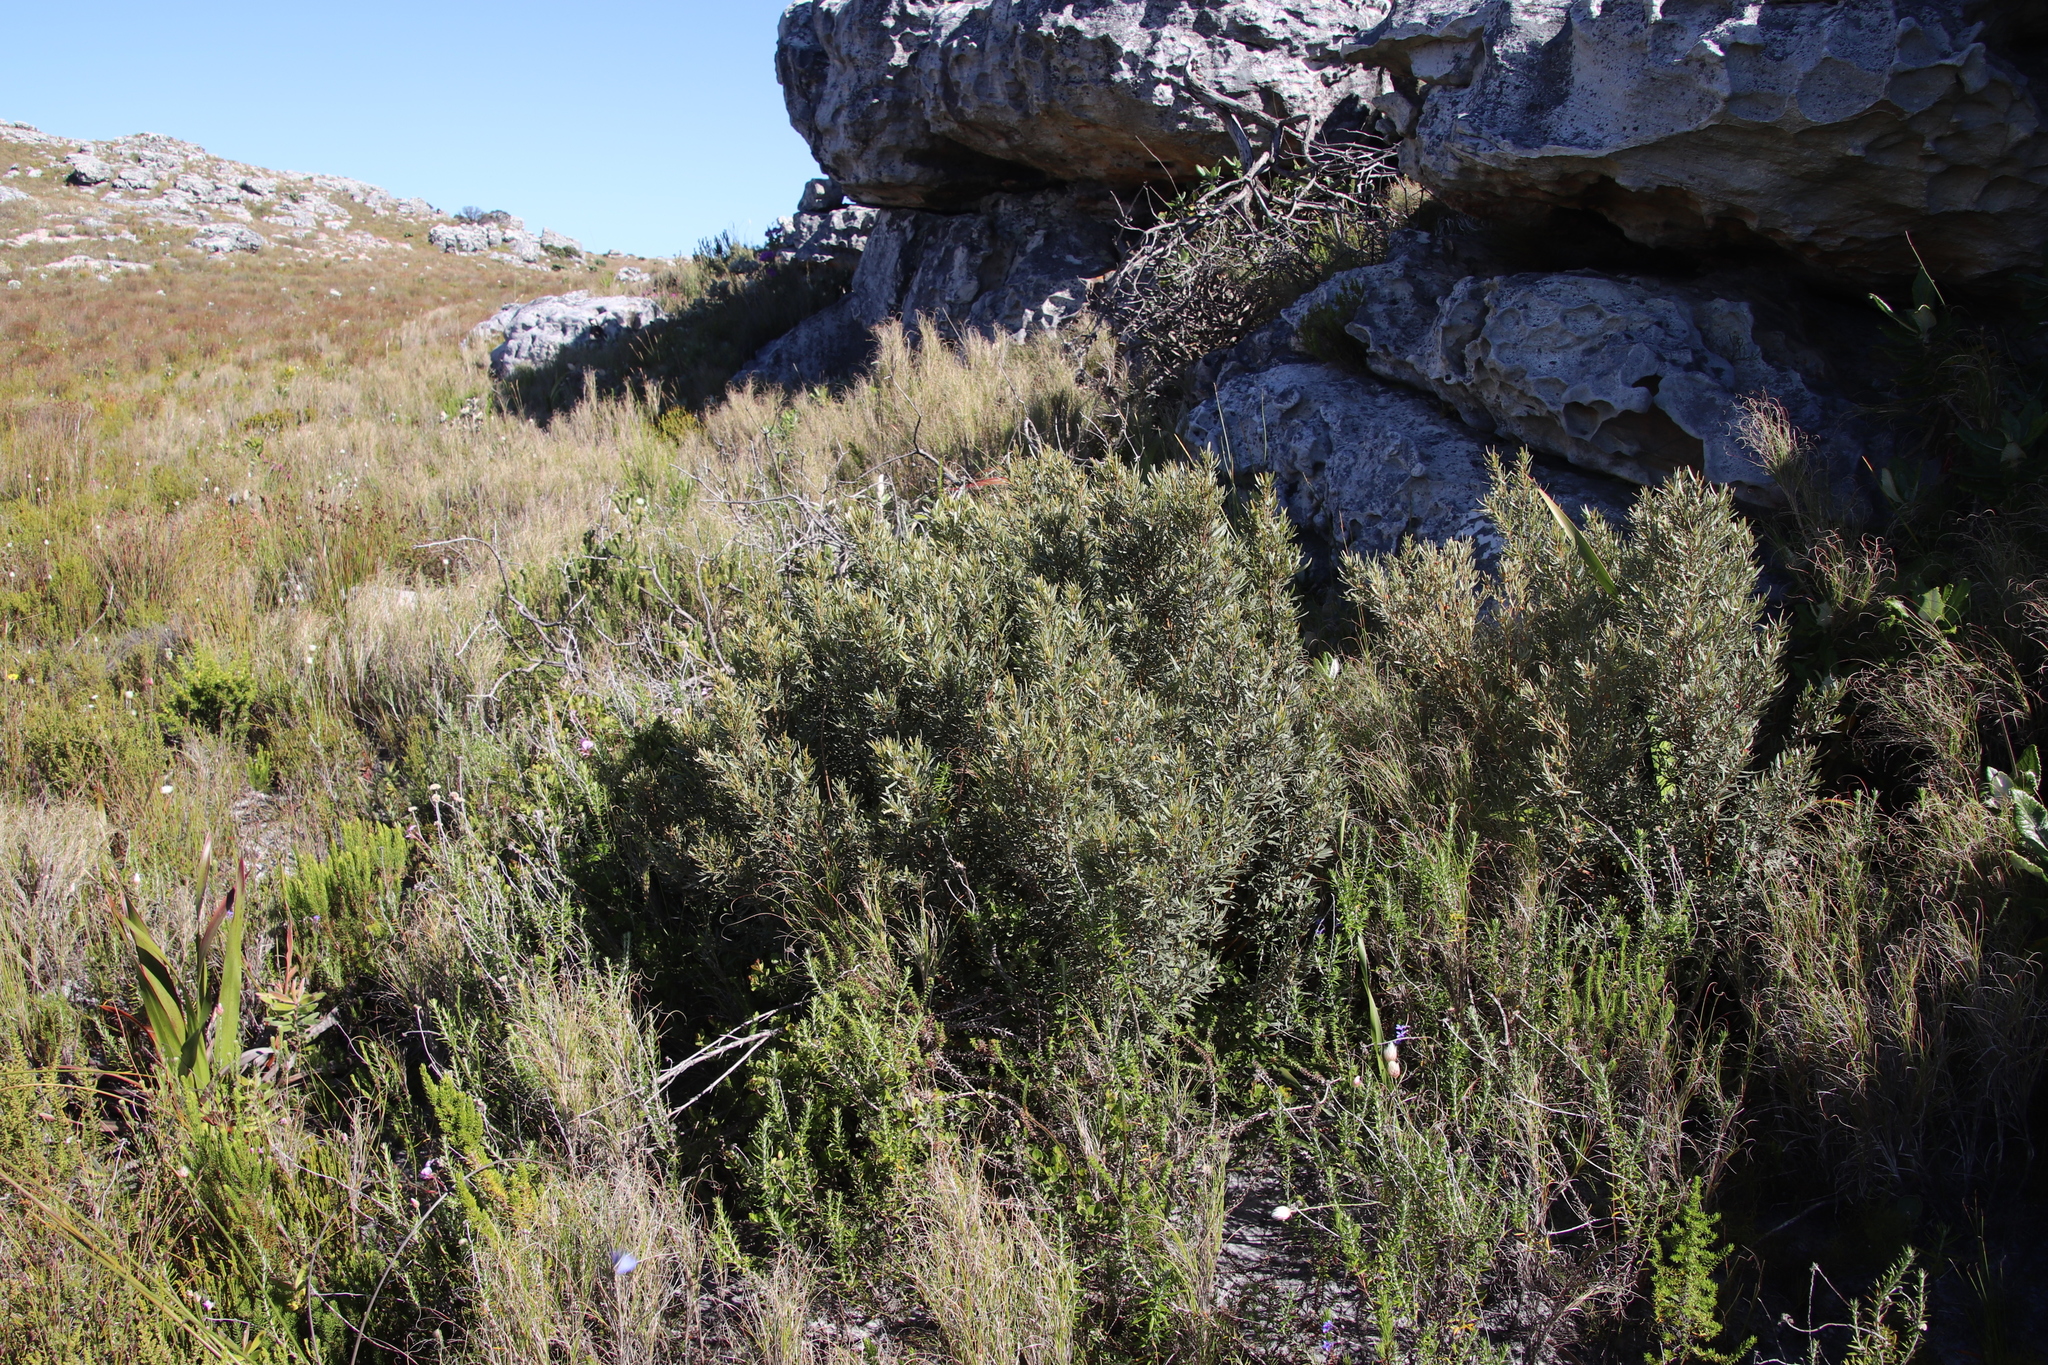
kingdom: Plantae
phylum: Tracheophyta
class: Magnoliopsida
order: Cornales
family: Grubbiaceae
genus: Grubbia
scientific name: Grubbia tomentosa
